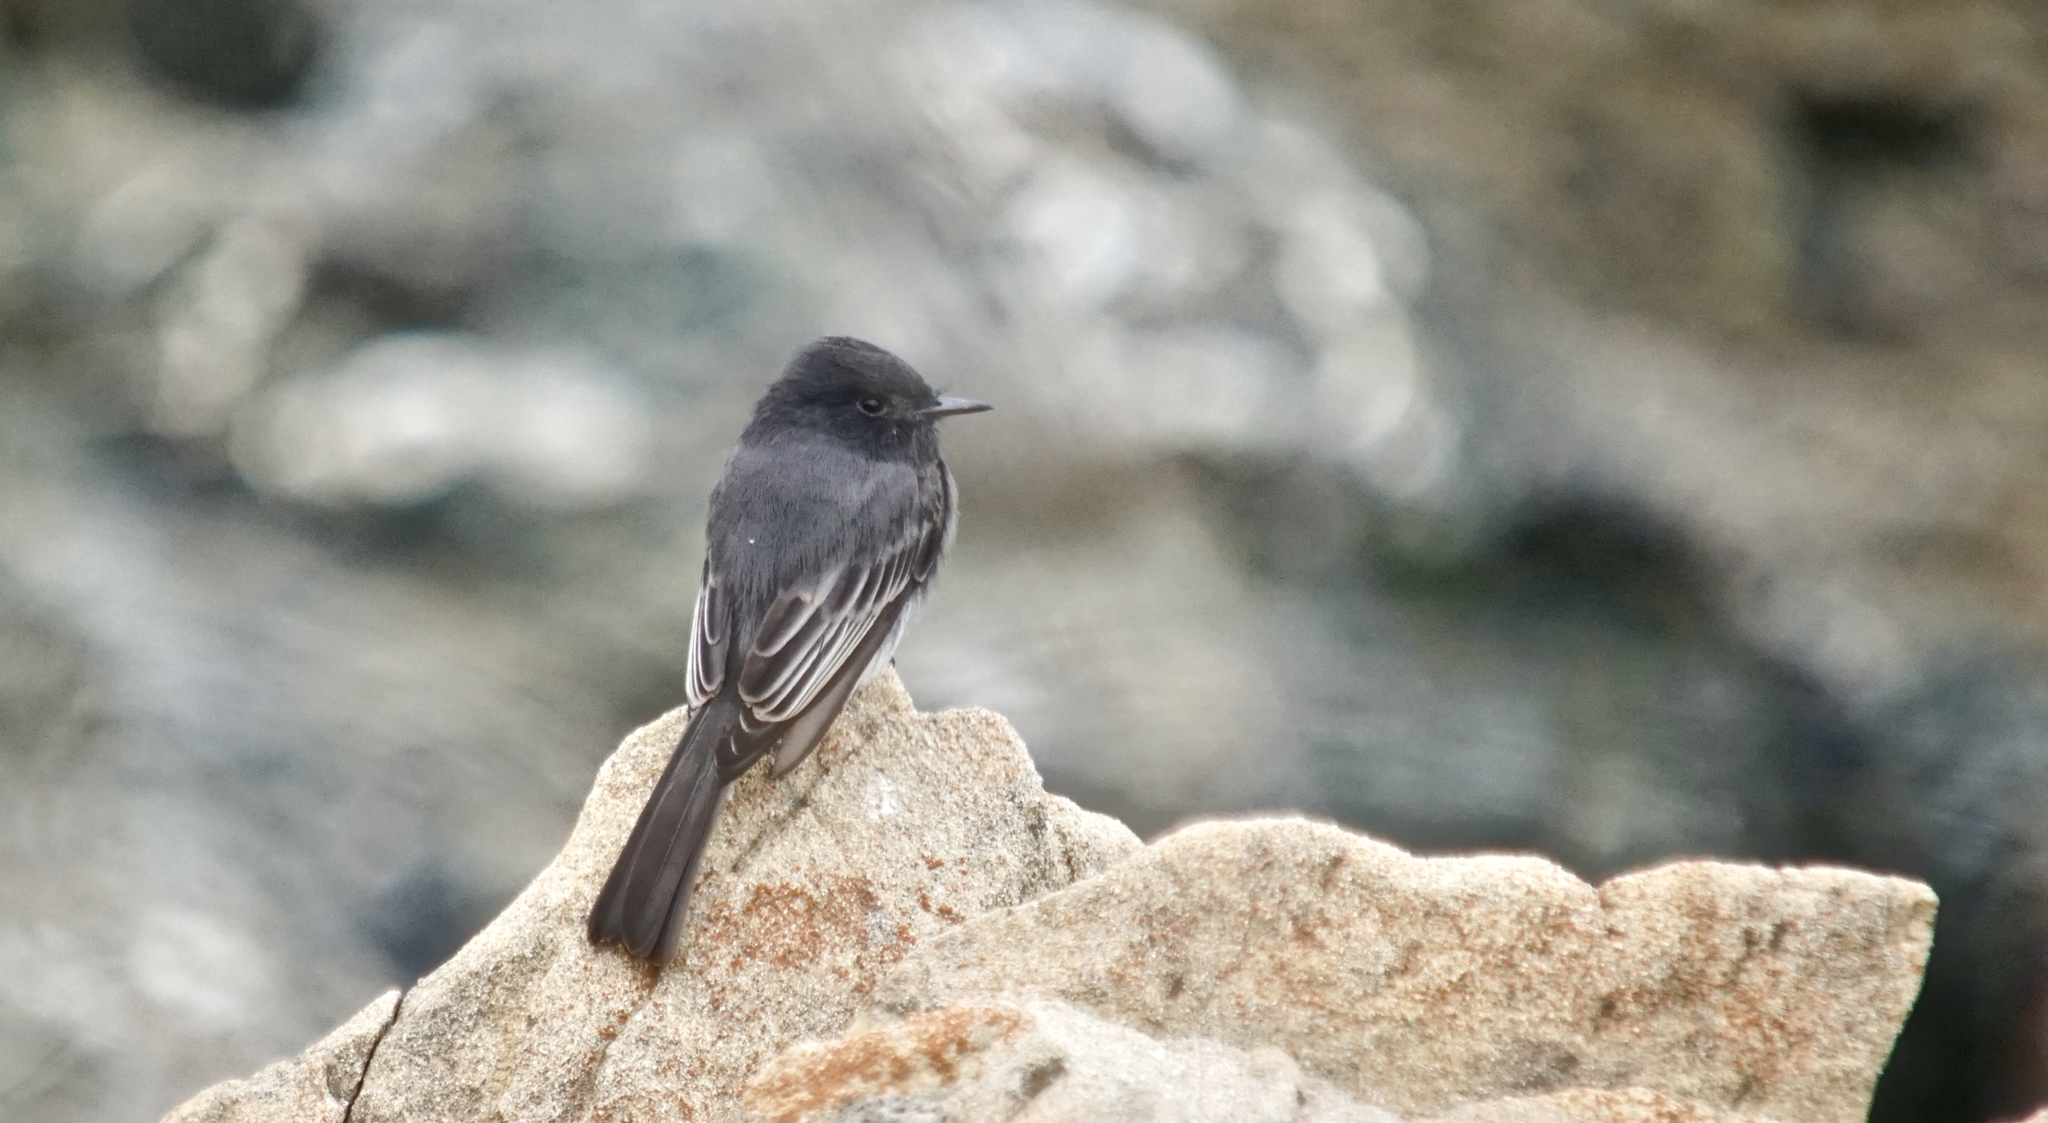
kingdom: Animalia
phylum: Chordata
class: Aves
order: Passeriformes
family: Tyrannidae
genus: Sayornis
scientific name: Sayornis nigricans
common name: Black phoebe
